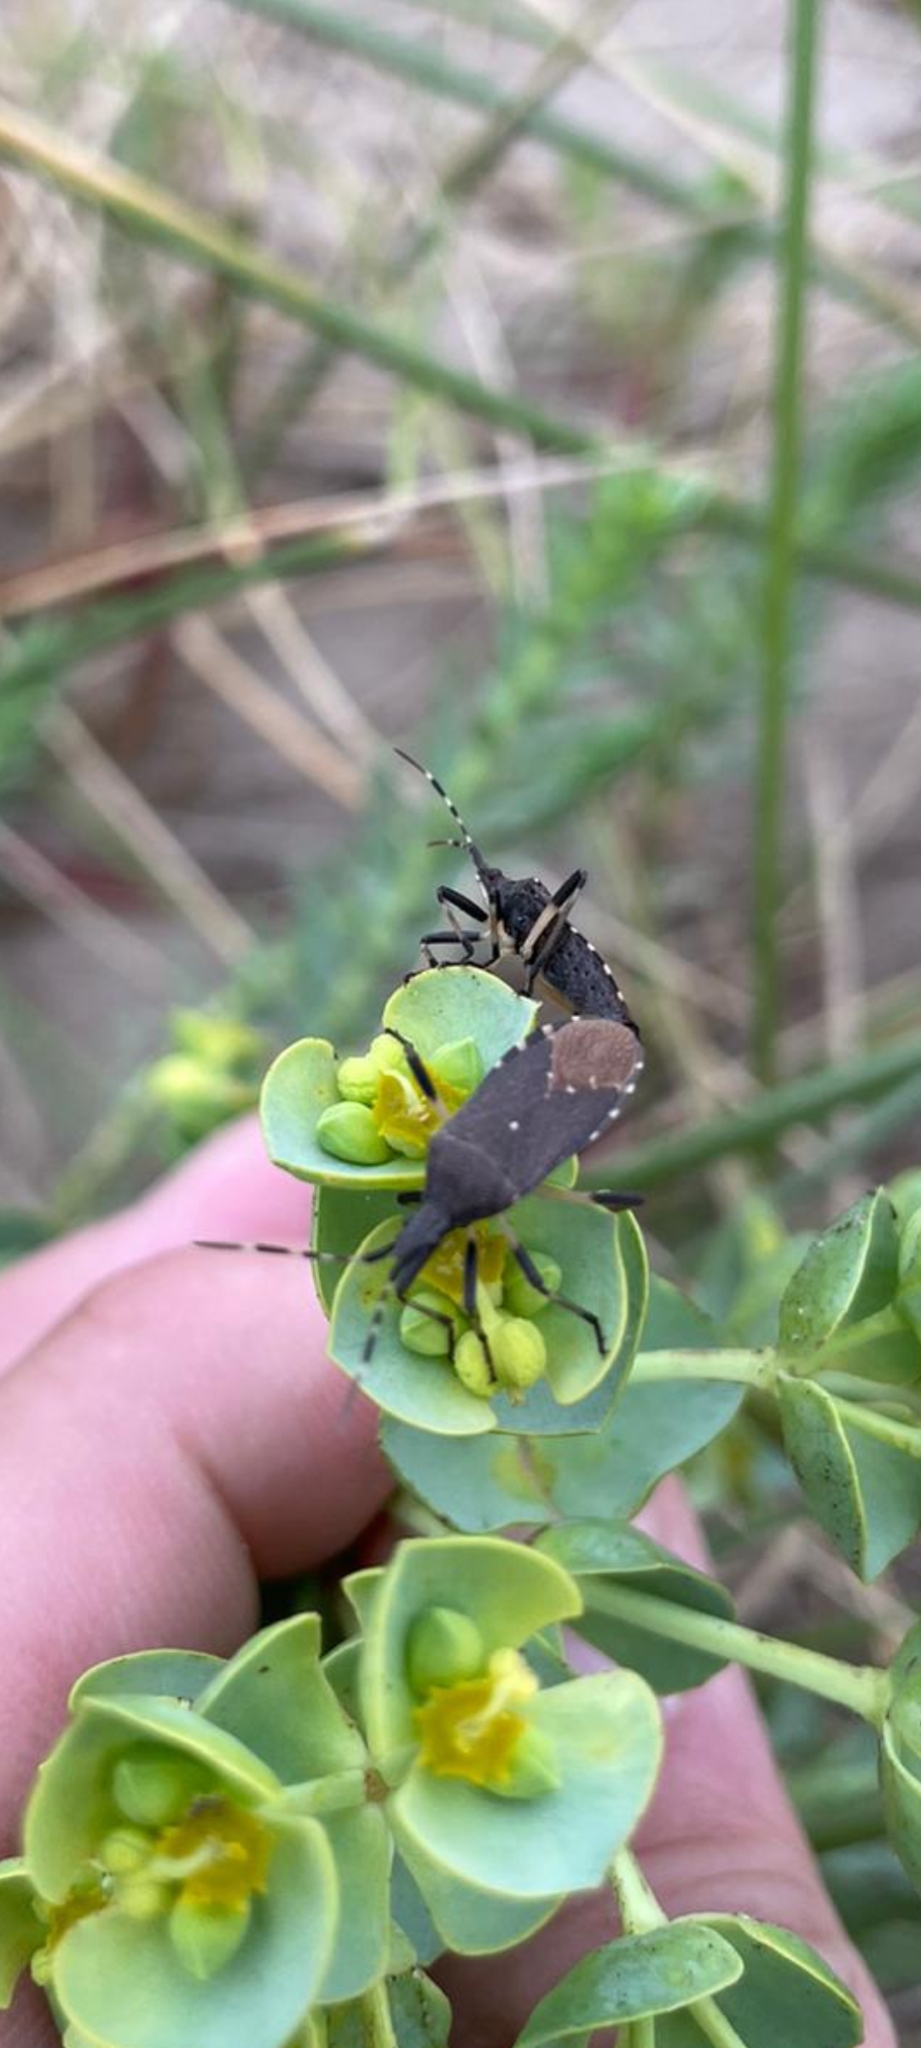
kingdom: Animalia
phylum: Arthropoda
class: Insecta
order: Hemiptera
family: Stenocephalidae
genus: Dicranocephalus
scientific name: Dicranocephalus agilis
